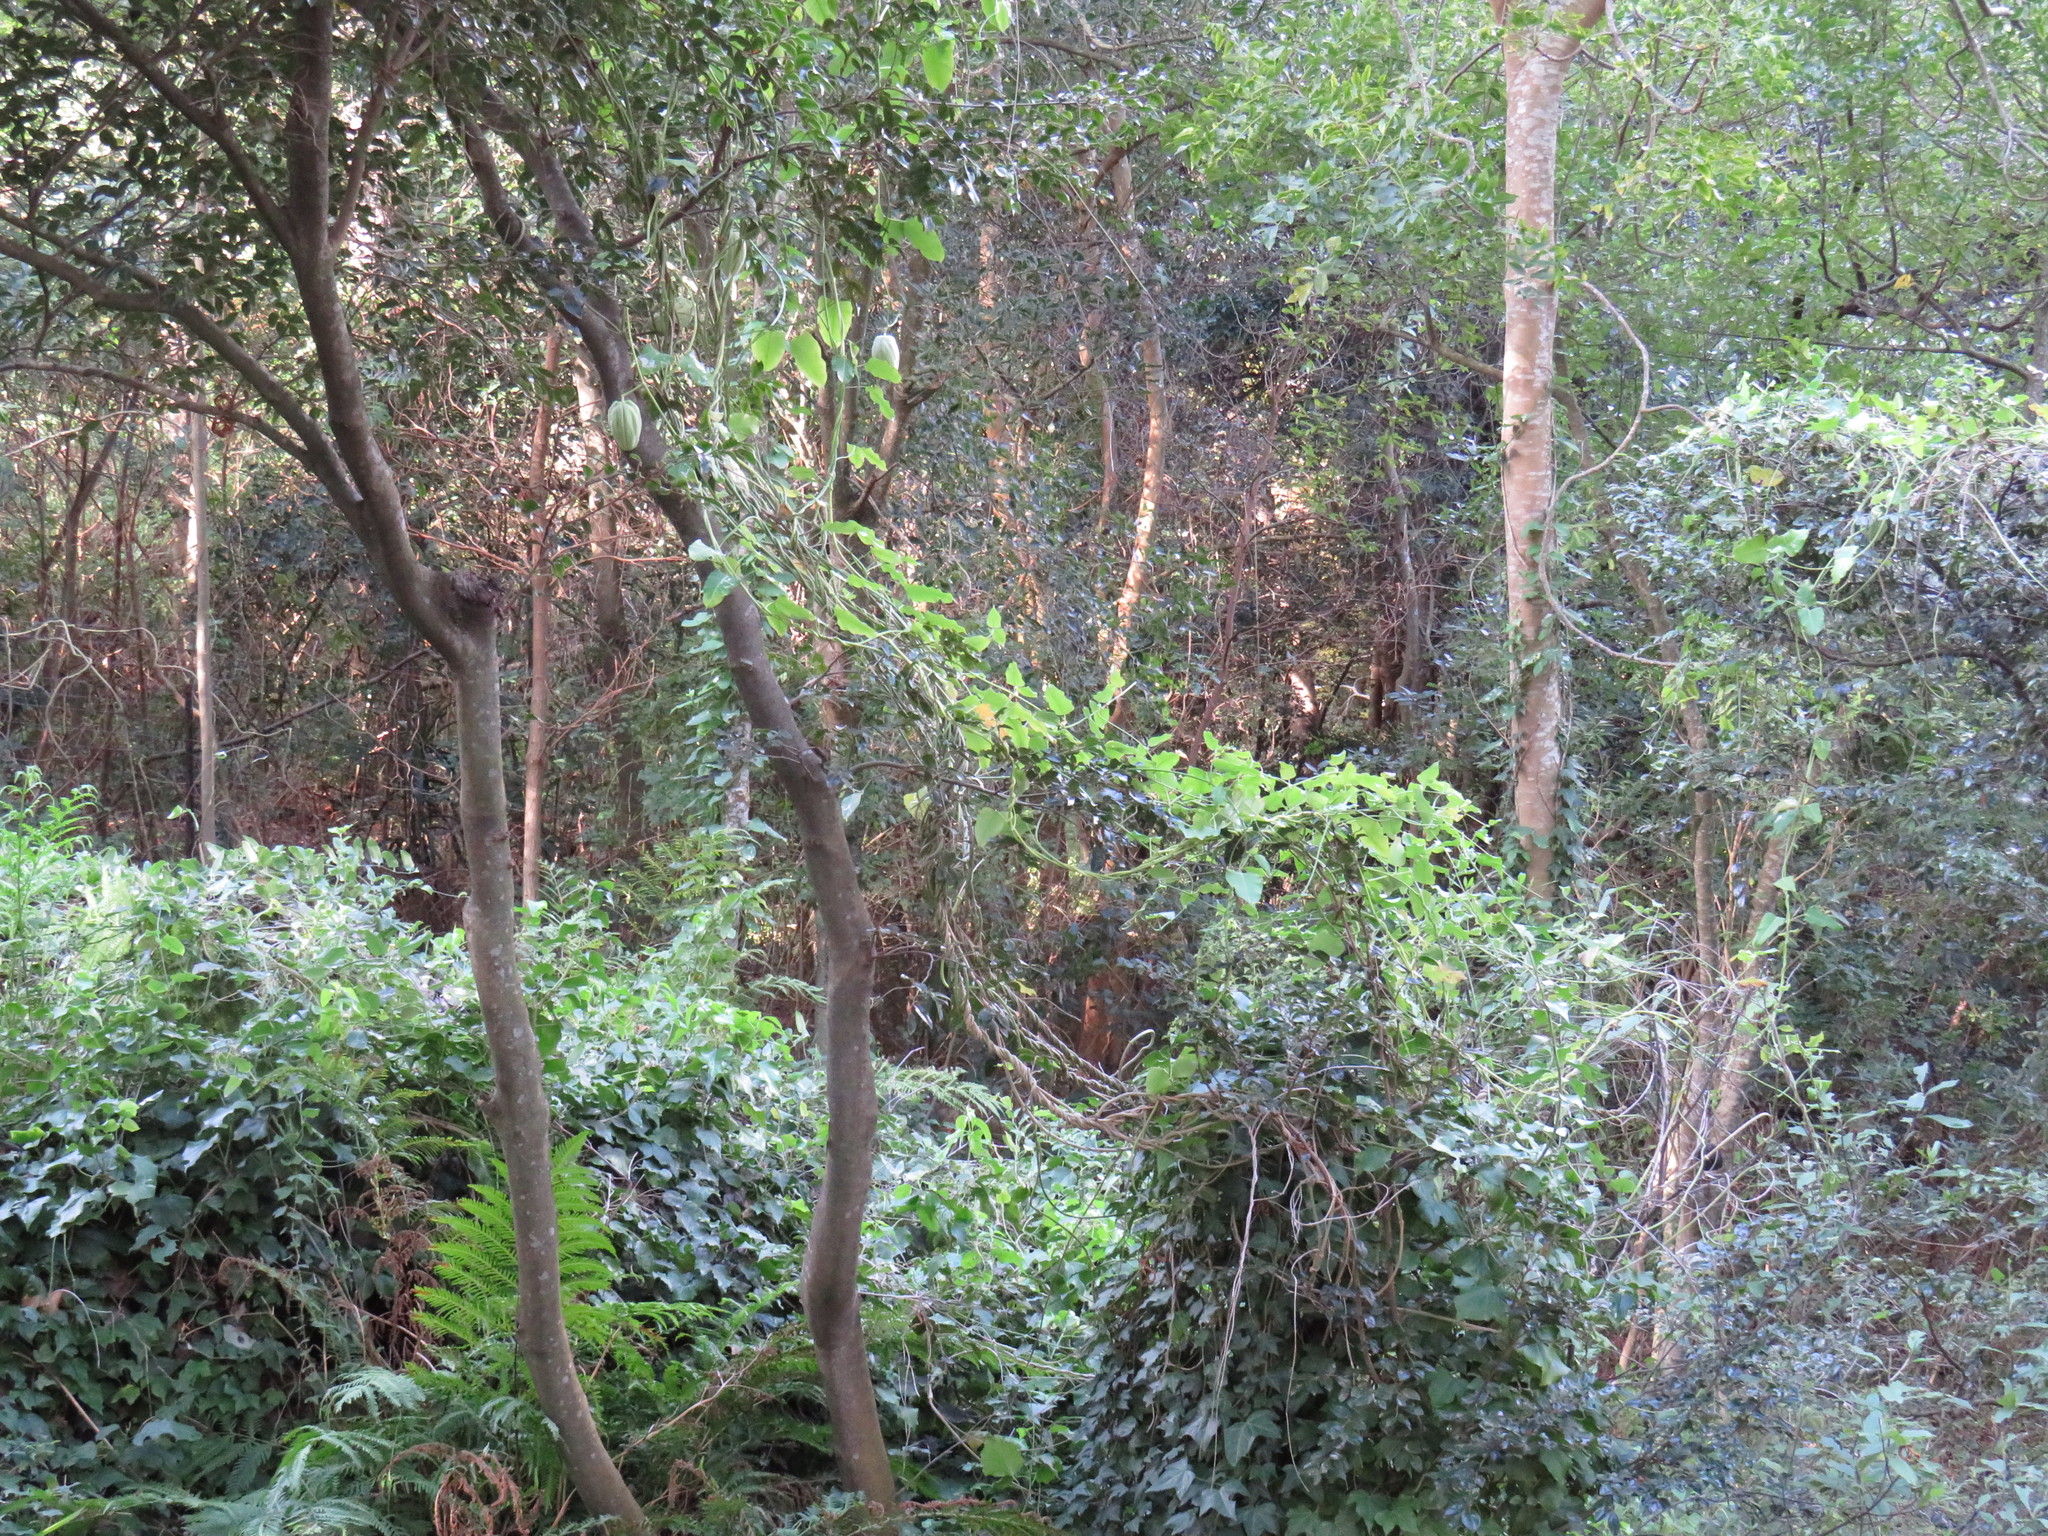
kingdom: Plantae
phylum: Tracheophyta
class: Magnoliopsida
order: Gentianales
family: Apocynaceae
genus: Araujia
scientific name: Araujia sericifera
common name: White bladderflower
